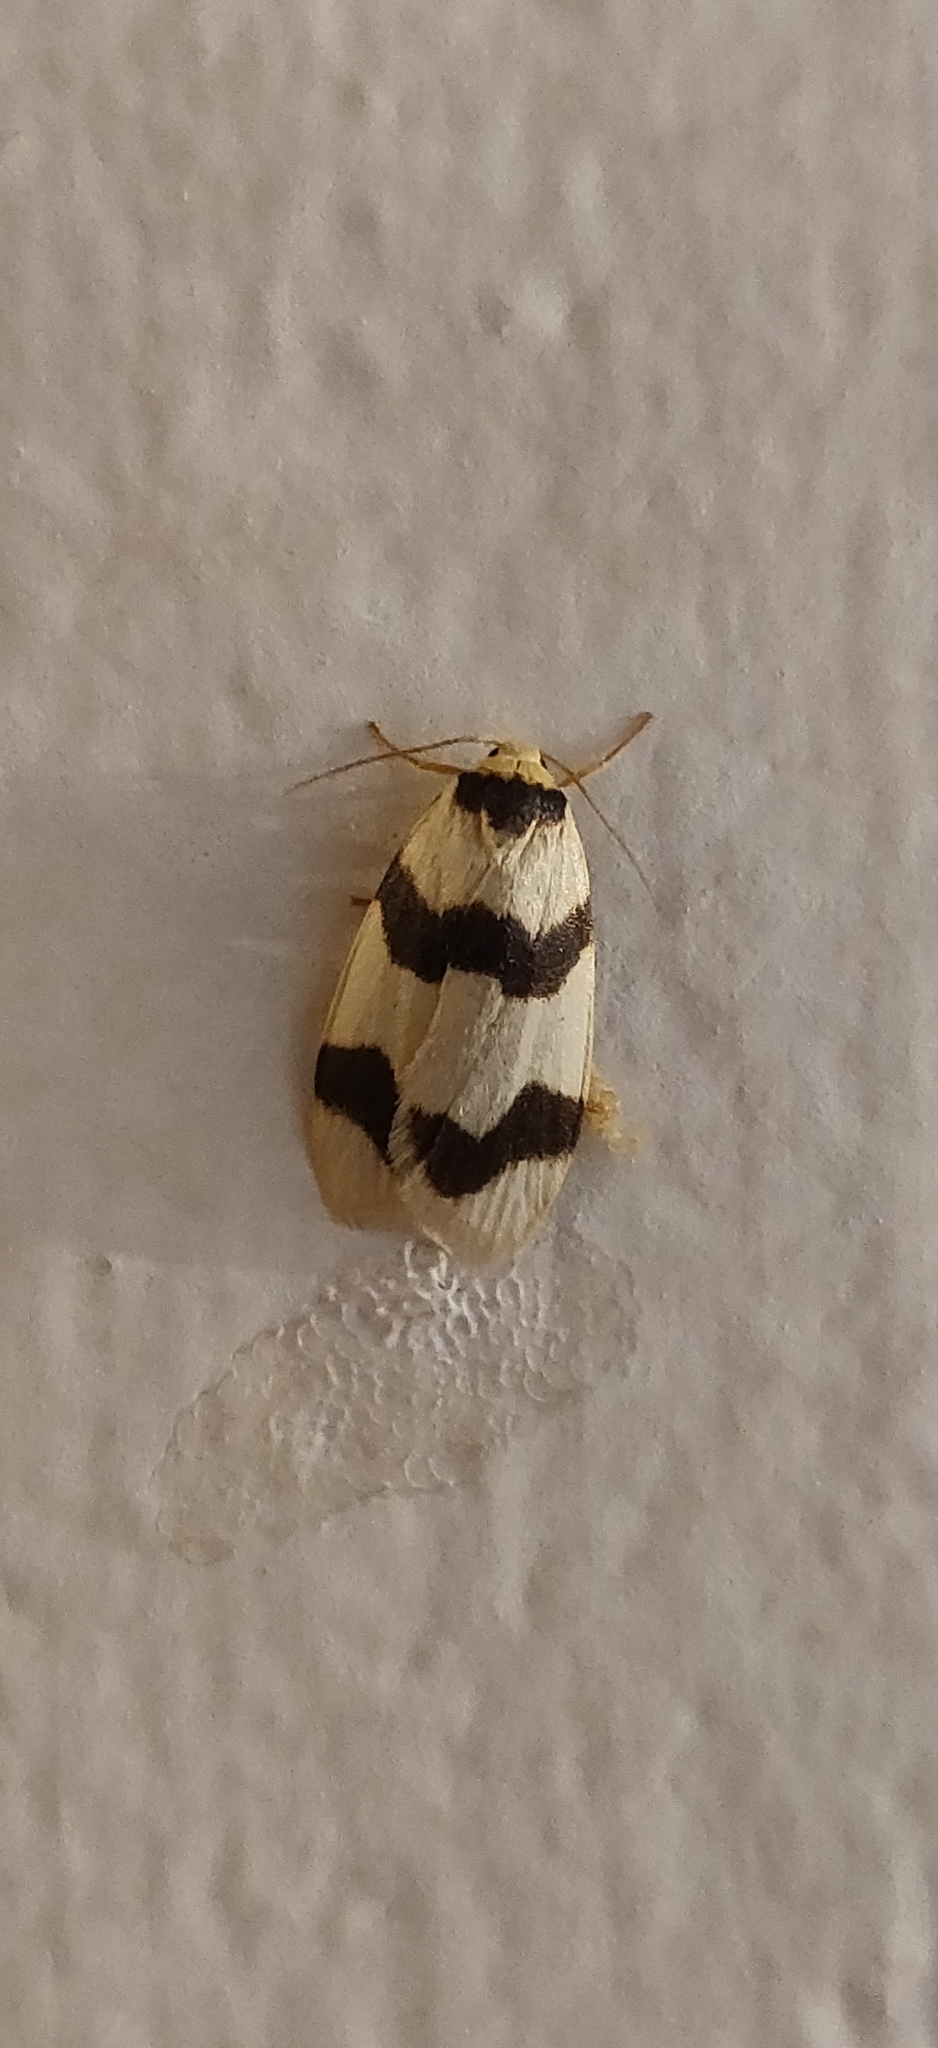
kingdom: Animalia
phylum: Arthropoda
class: Insecta
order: Lepidoptera
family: Erebidae
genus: Padenia
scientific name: Padenia transversa
